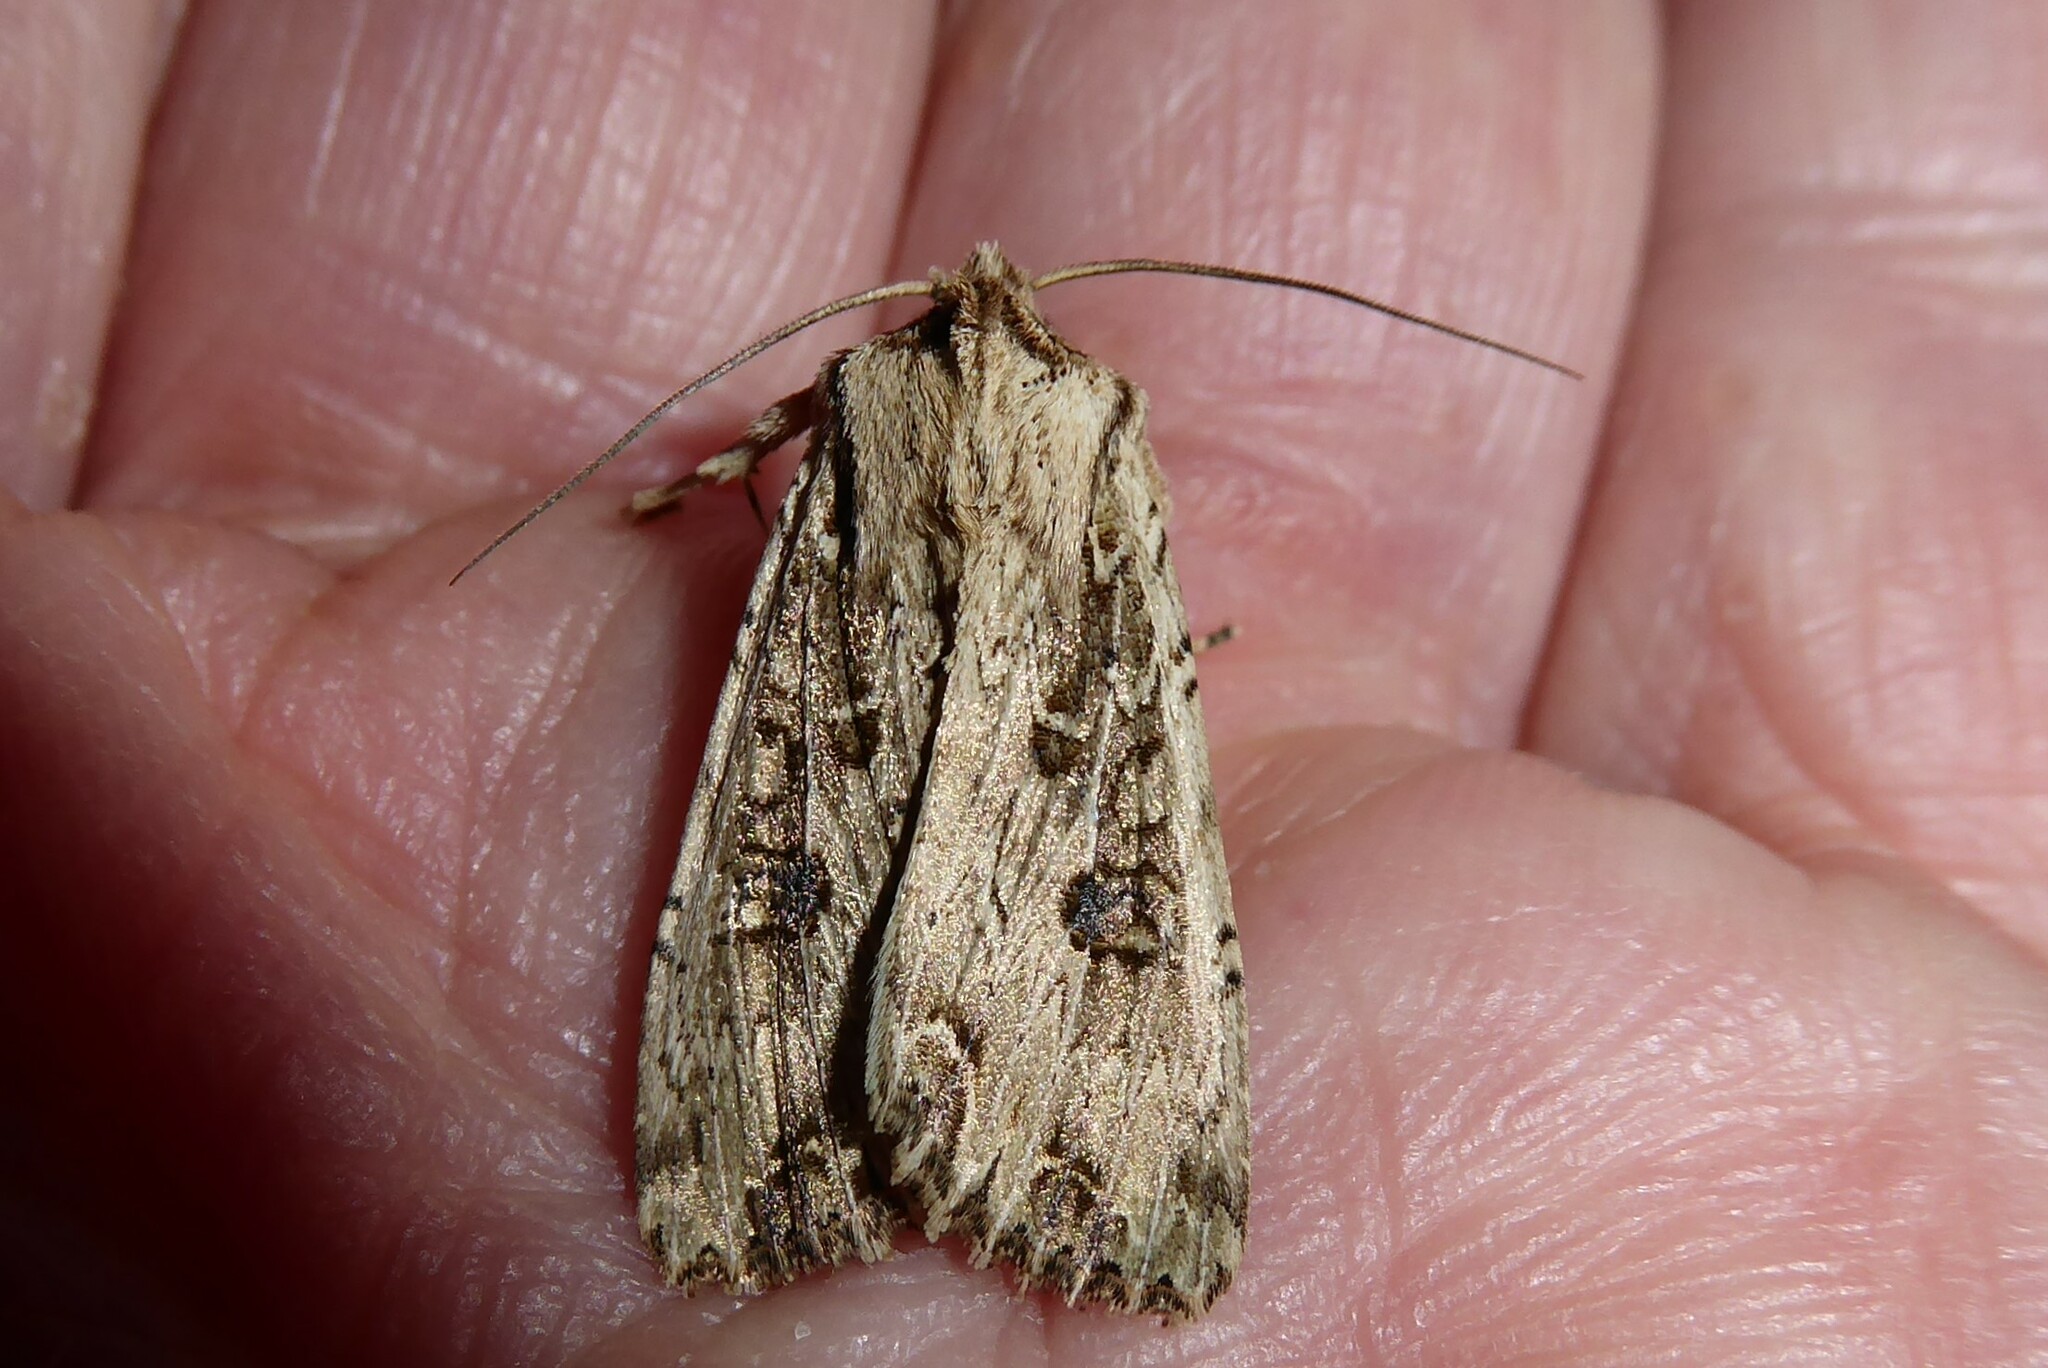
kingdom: Animalia
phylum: Arthropoda
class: Insecta
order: Lepidoptera
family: Noctuidae
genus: Ichneutica
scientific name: Ichneutica lignana
